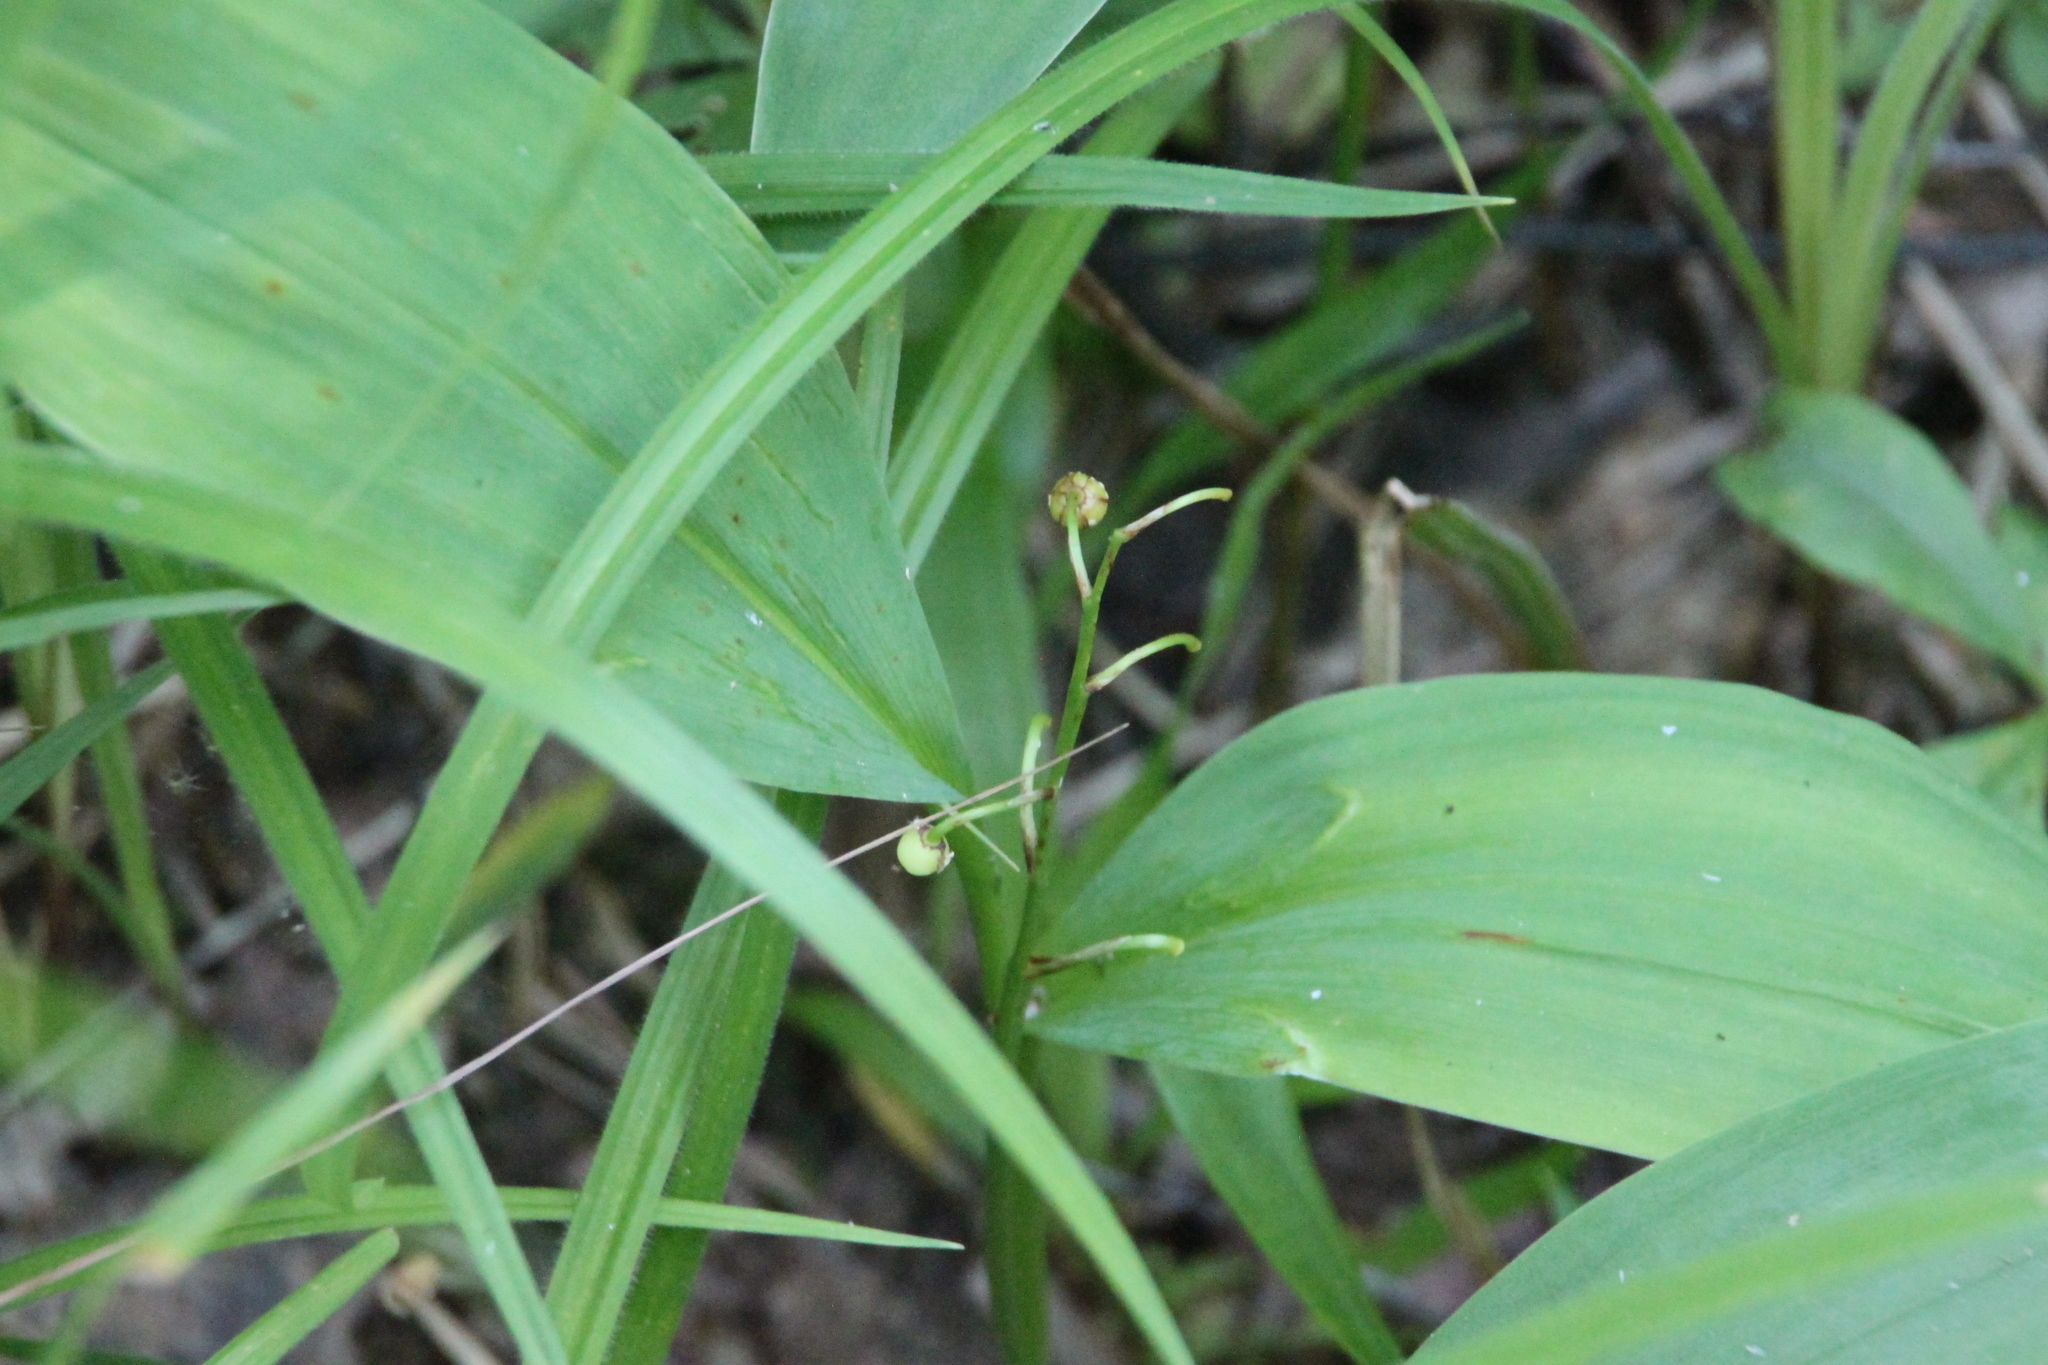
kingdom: Plantae
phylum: Tracheophyta
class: Liliopsida
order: Asparagales
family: Asparagaceae
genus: Convallaria
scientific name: Convallaria majalis
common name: Lily-of-the-valley
